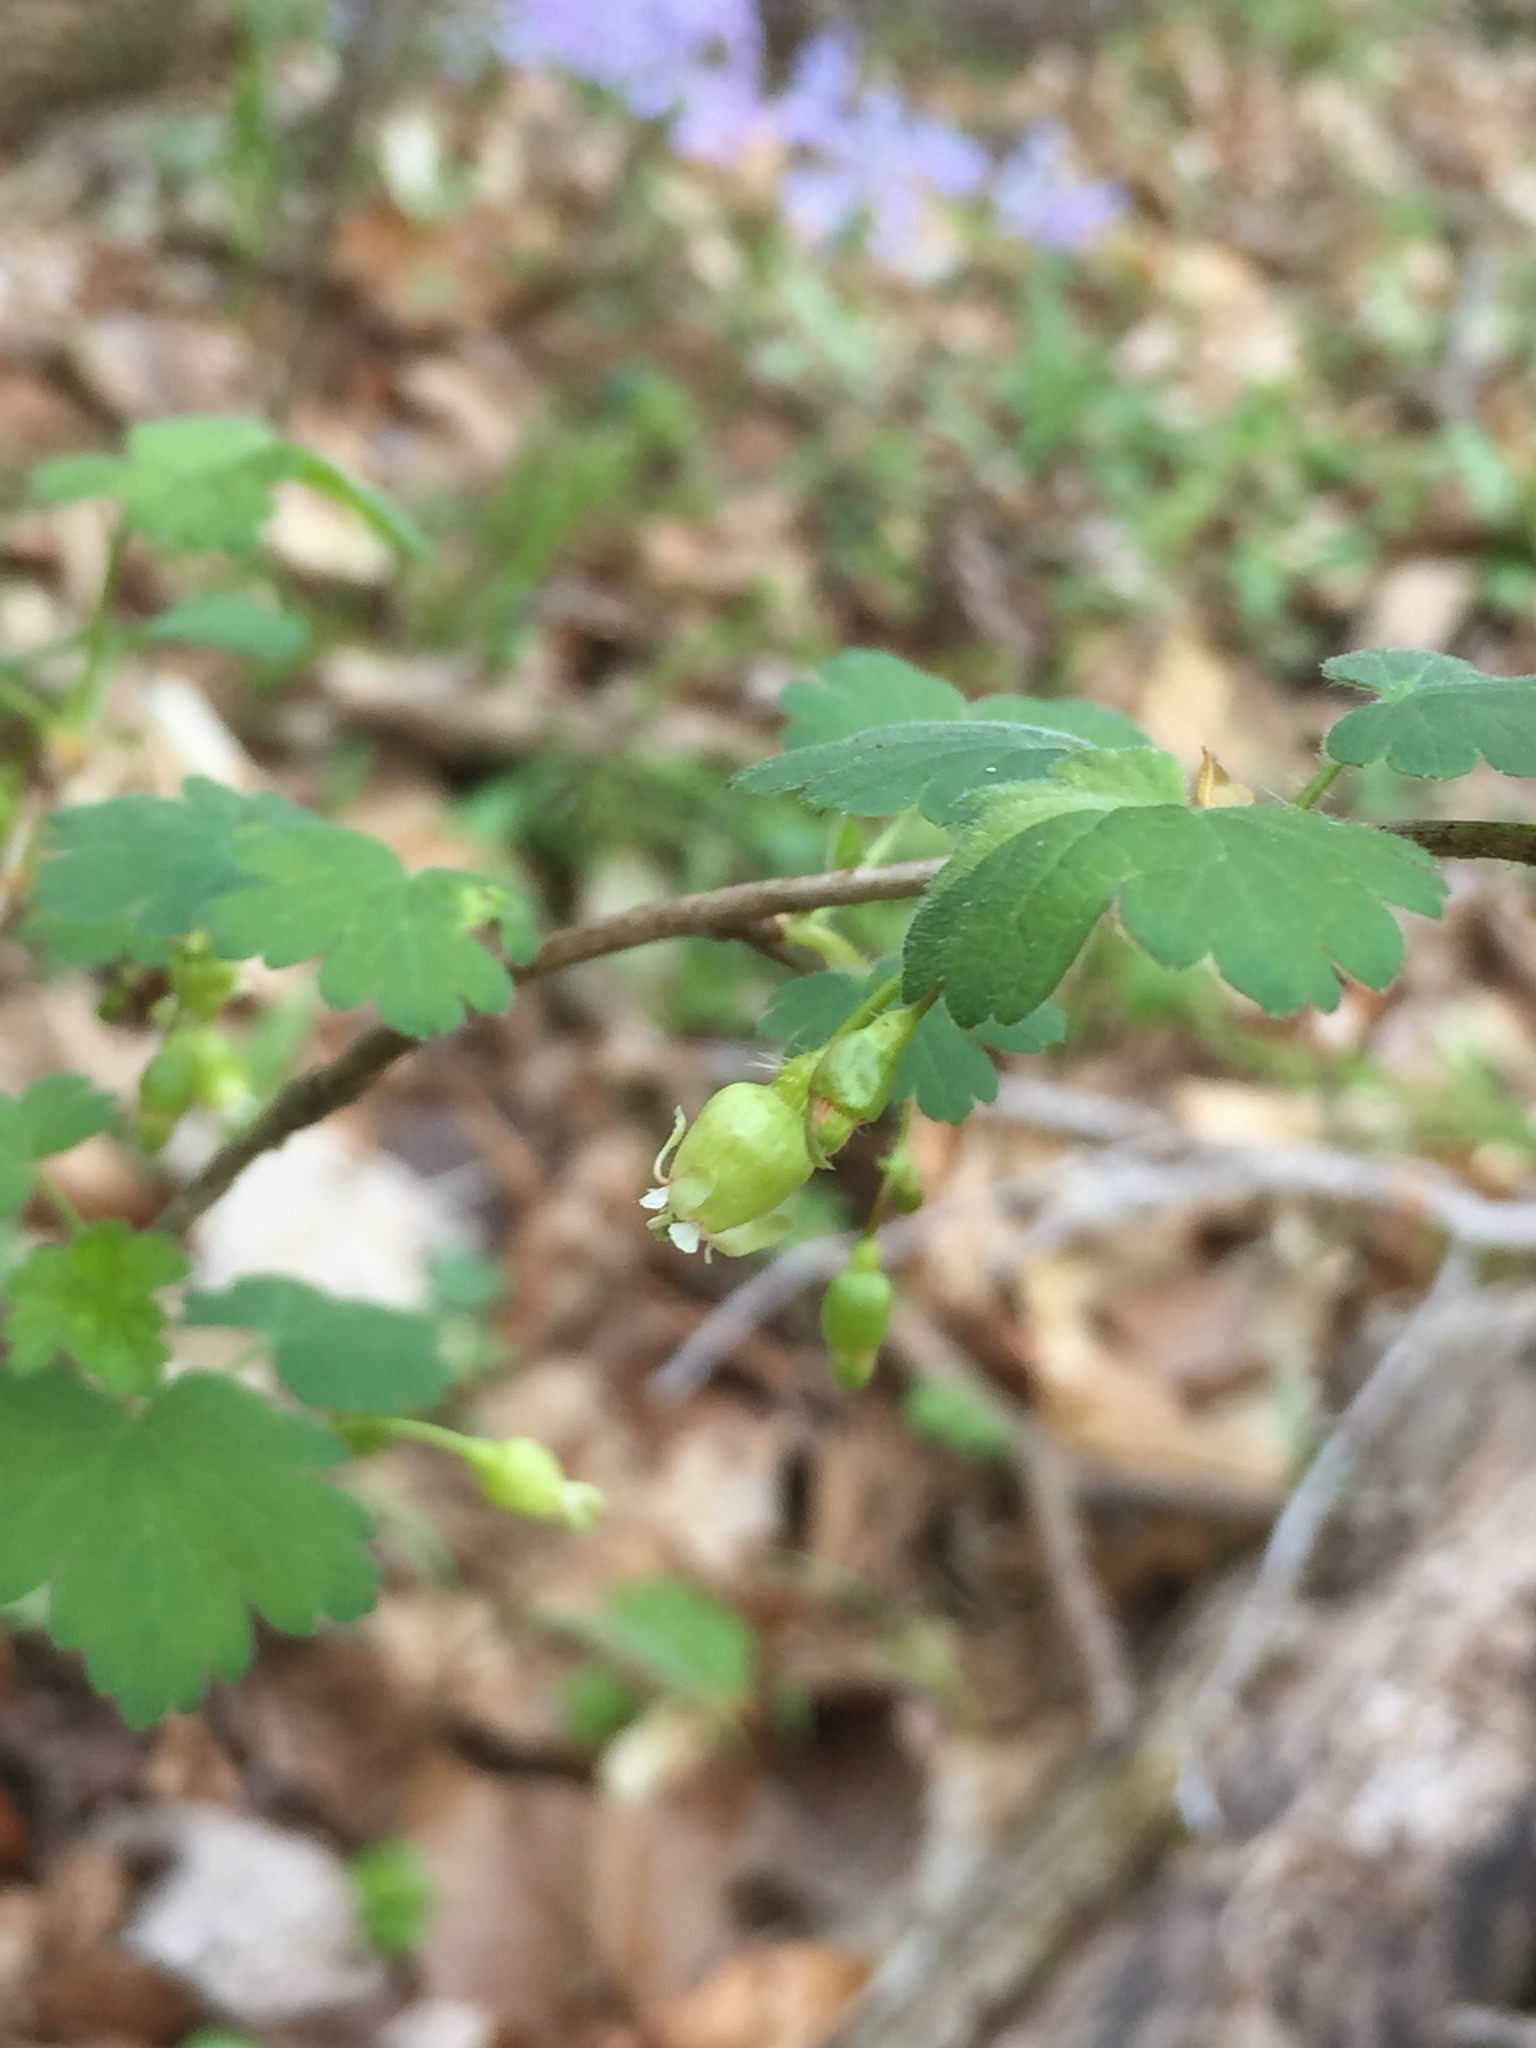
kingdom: Plantae
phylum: Tracheophyta
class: Magnoliopsida
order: Saxifragales
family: Grossulariaceae
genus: Ribes
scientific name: Ribes cynosbati
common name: American gooseberry
